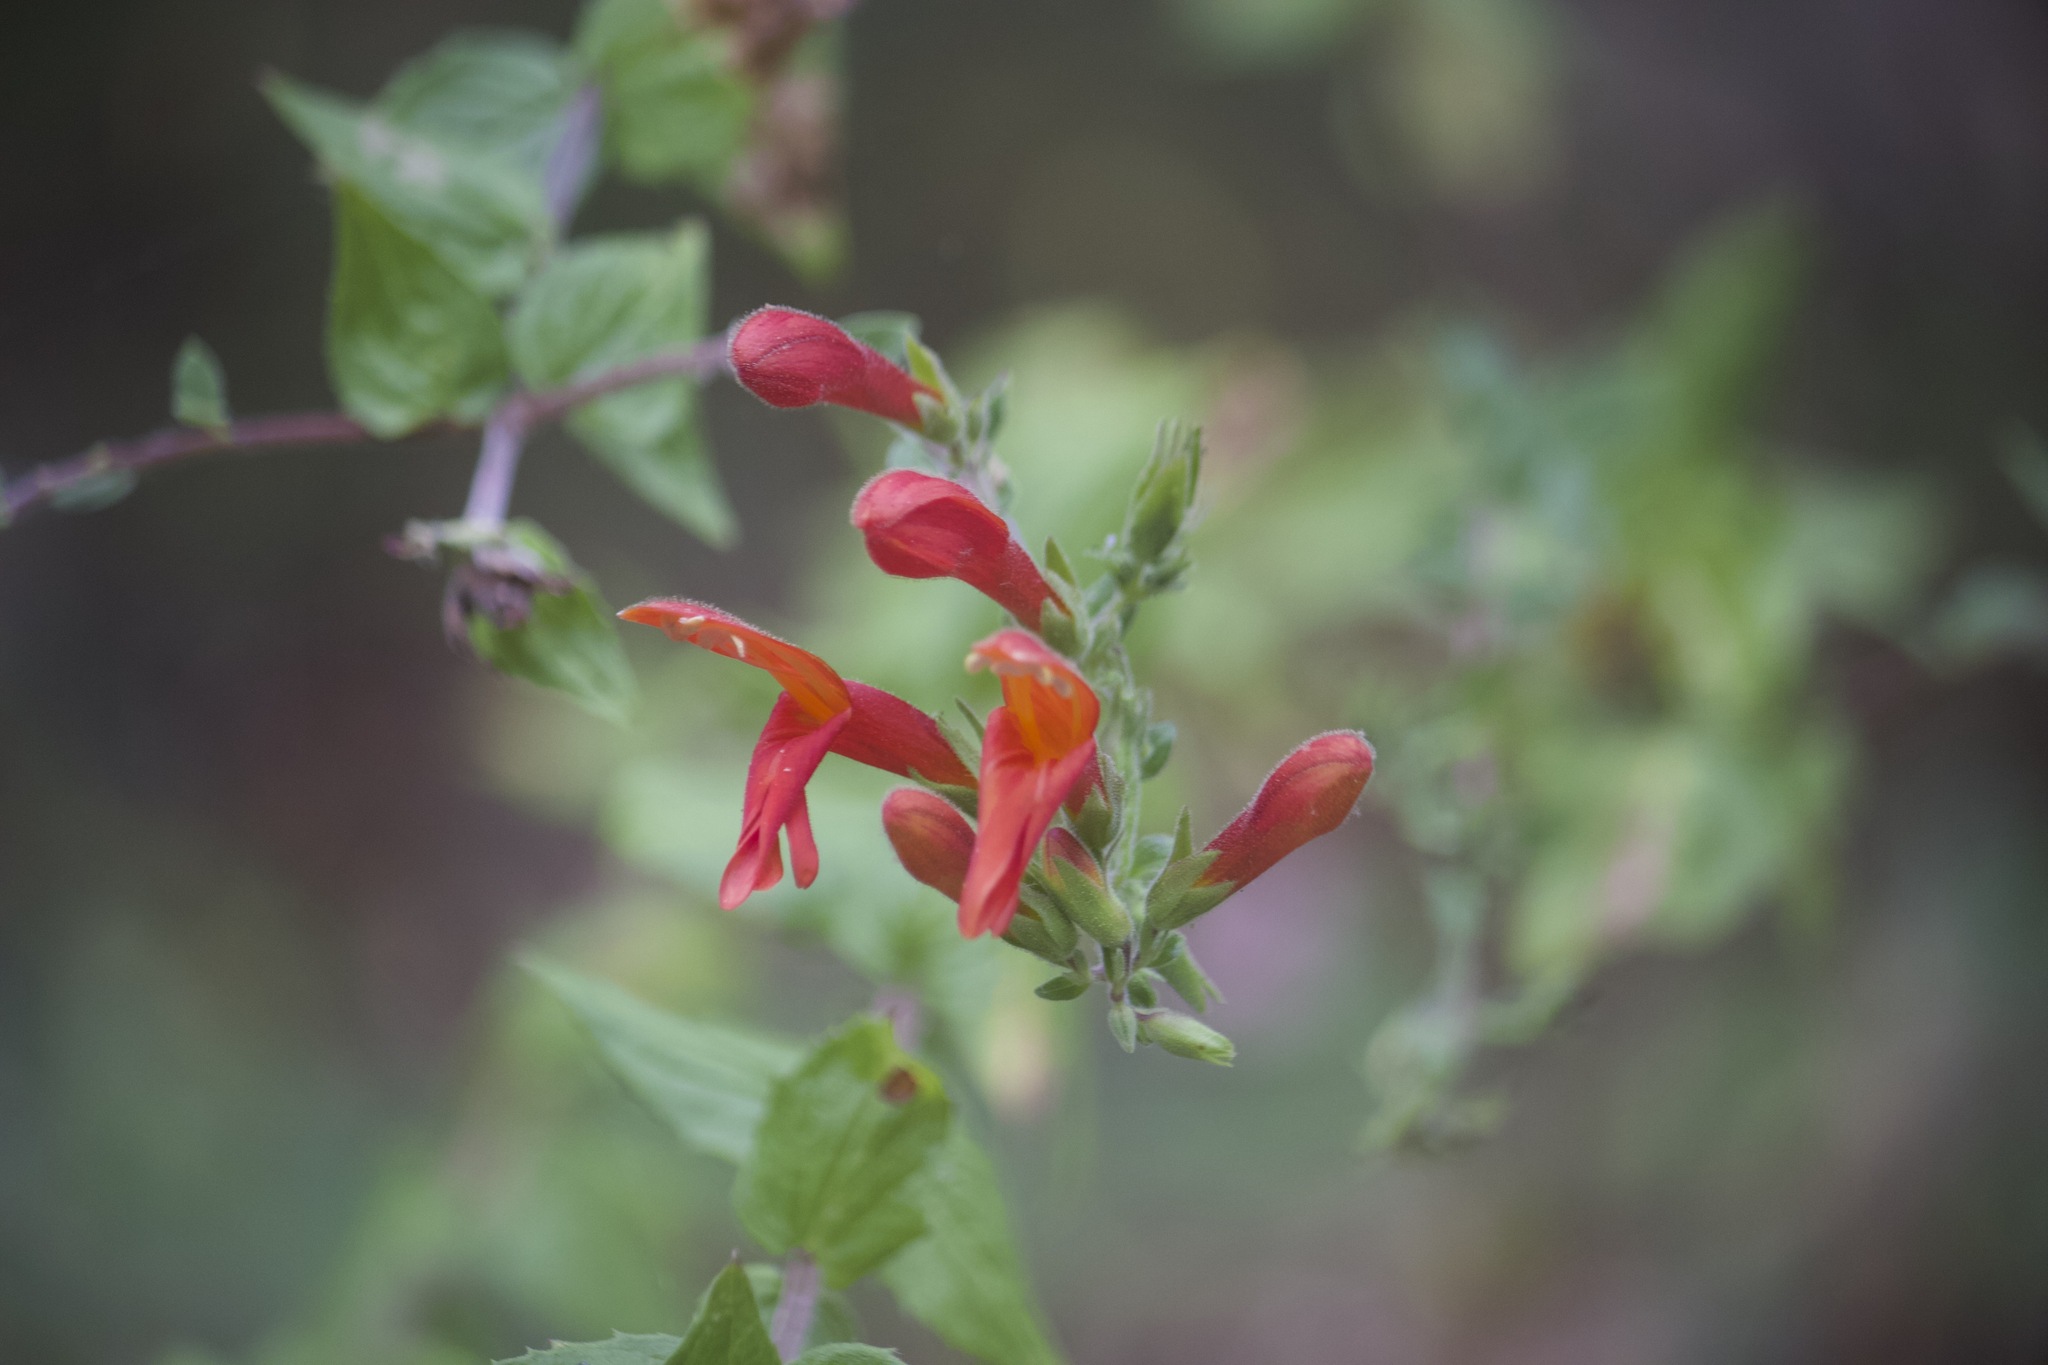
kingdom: Plantae
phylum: Tracheophyta
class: Magnoliopsida
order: Lamiales
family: Plantaginaceae
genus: Keckiella
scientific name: Keckiella cordifolia
